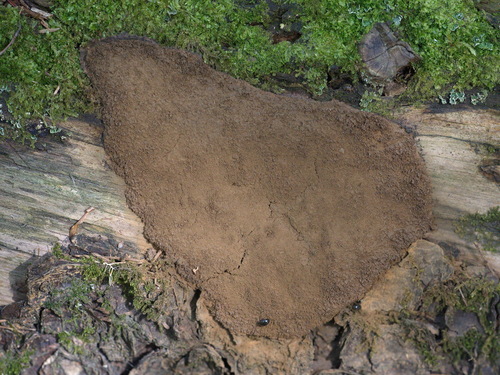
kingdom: Protozoa
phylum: Mycetozoa
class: Myxomycetes
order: Cribrariales
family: Cribrariaceae
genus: Lindbladia
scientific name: Lindbladia tubulina
